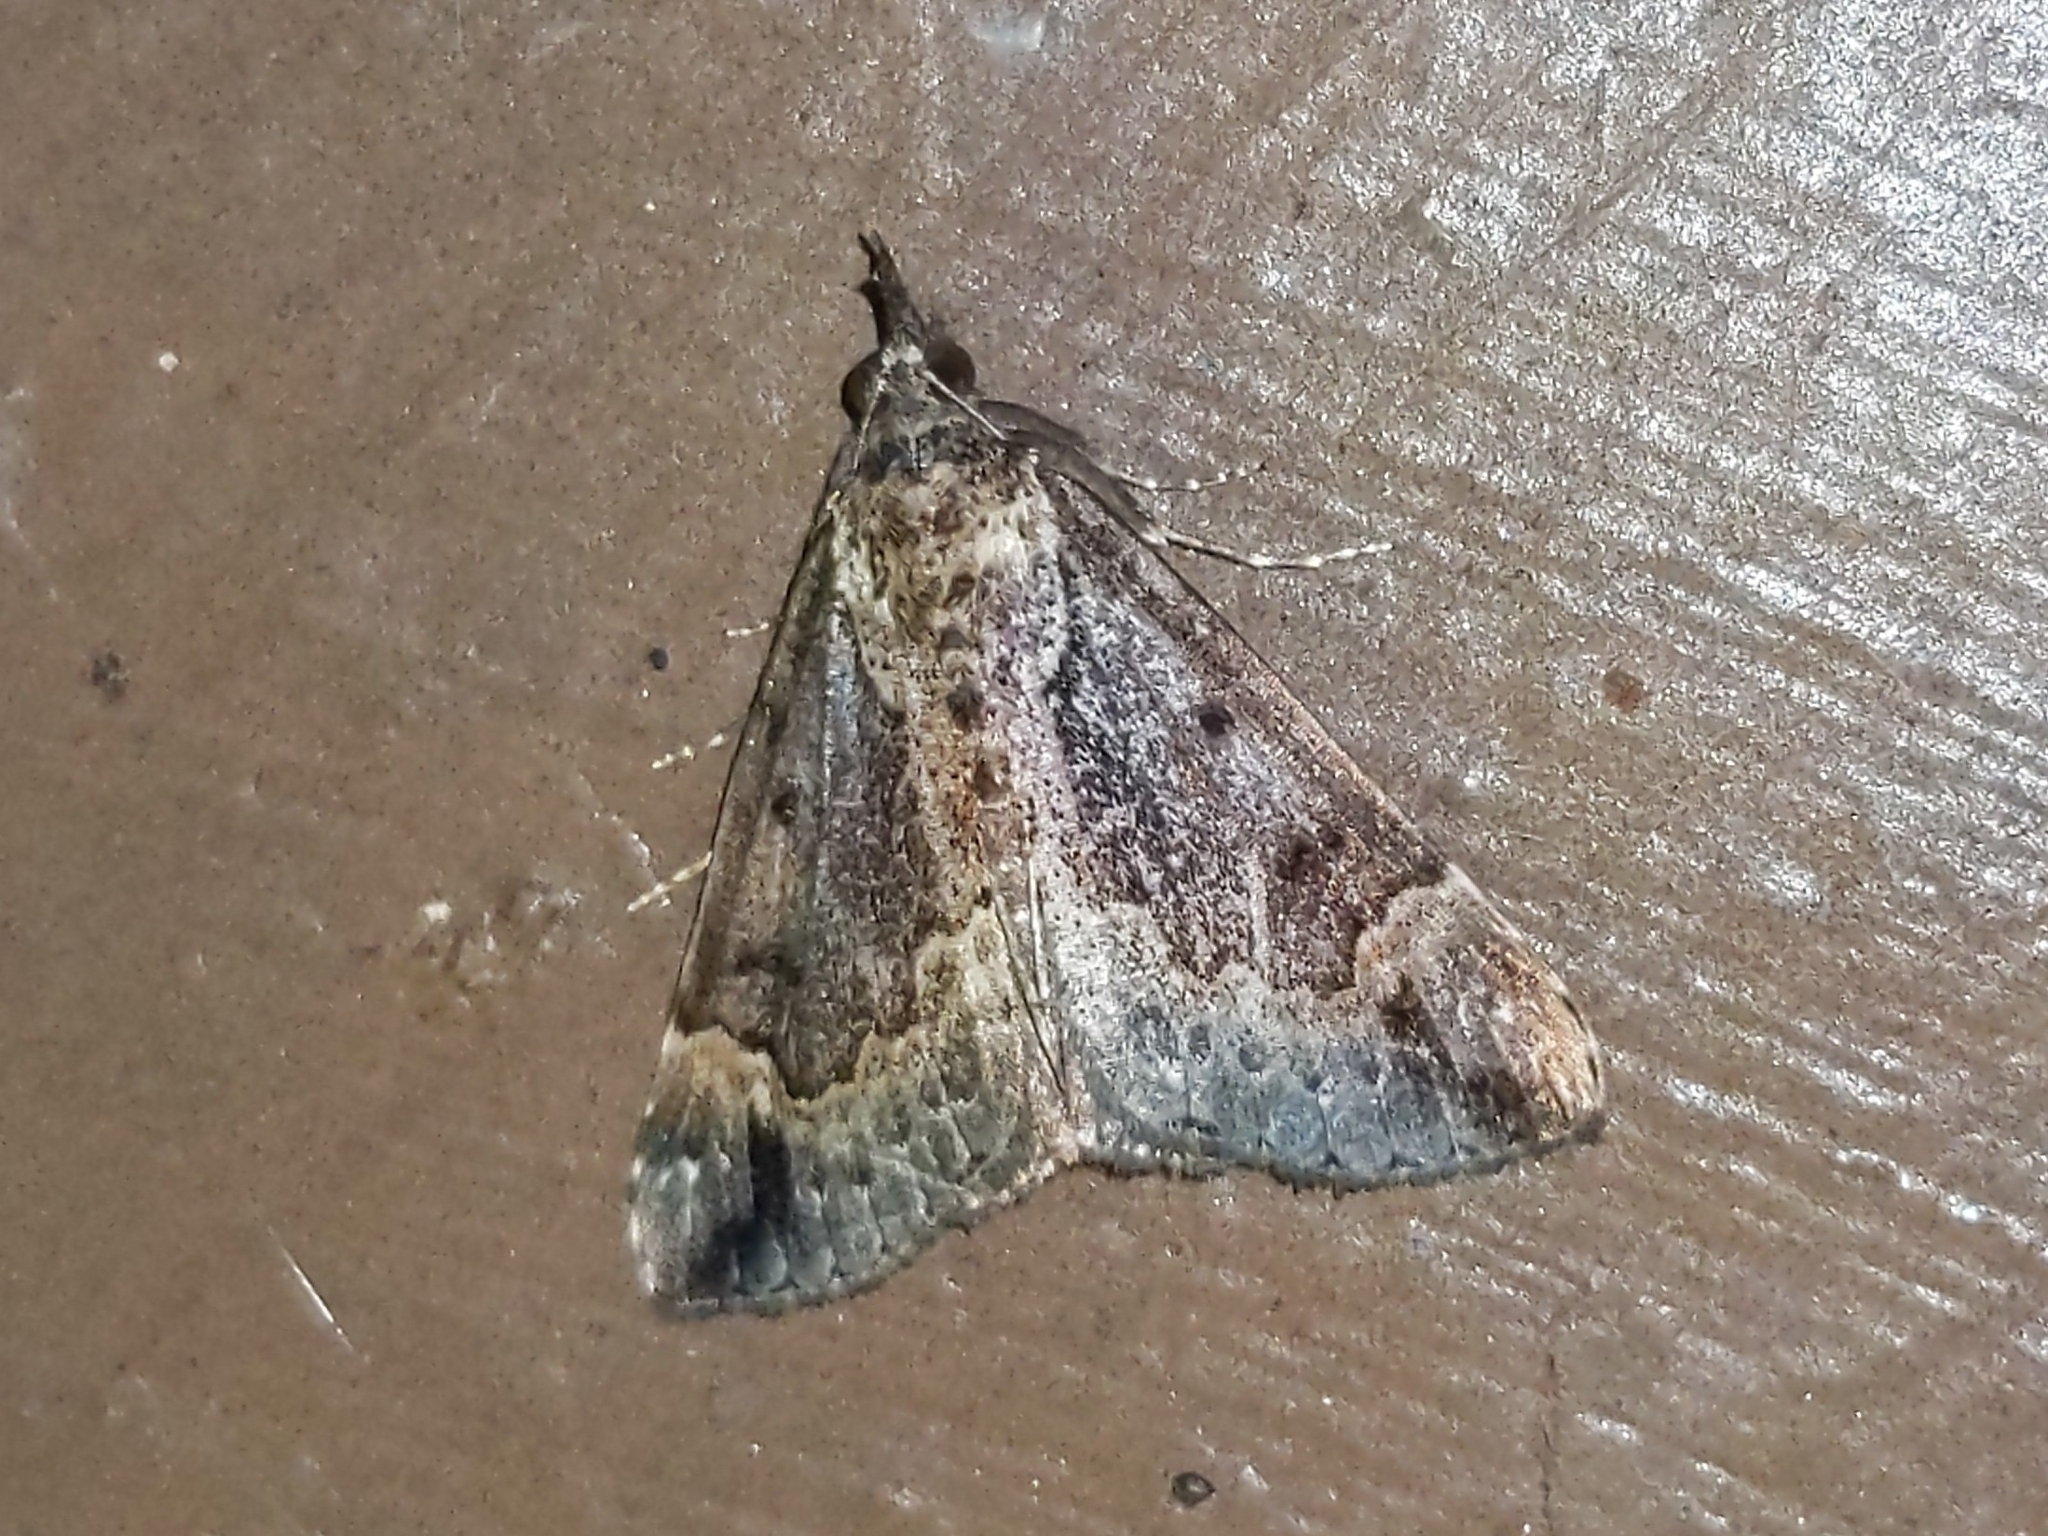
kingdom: Animalia
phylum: Arthropoda
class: Insecta
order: Lepidoptera
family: Erebidae
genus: Hypena
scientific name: Hypena baltimoralis
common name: Baltimore snout
